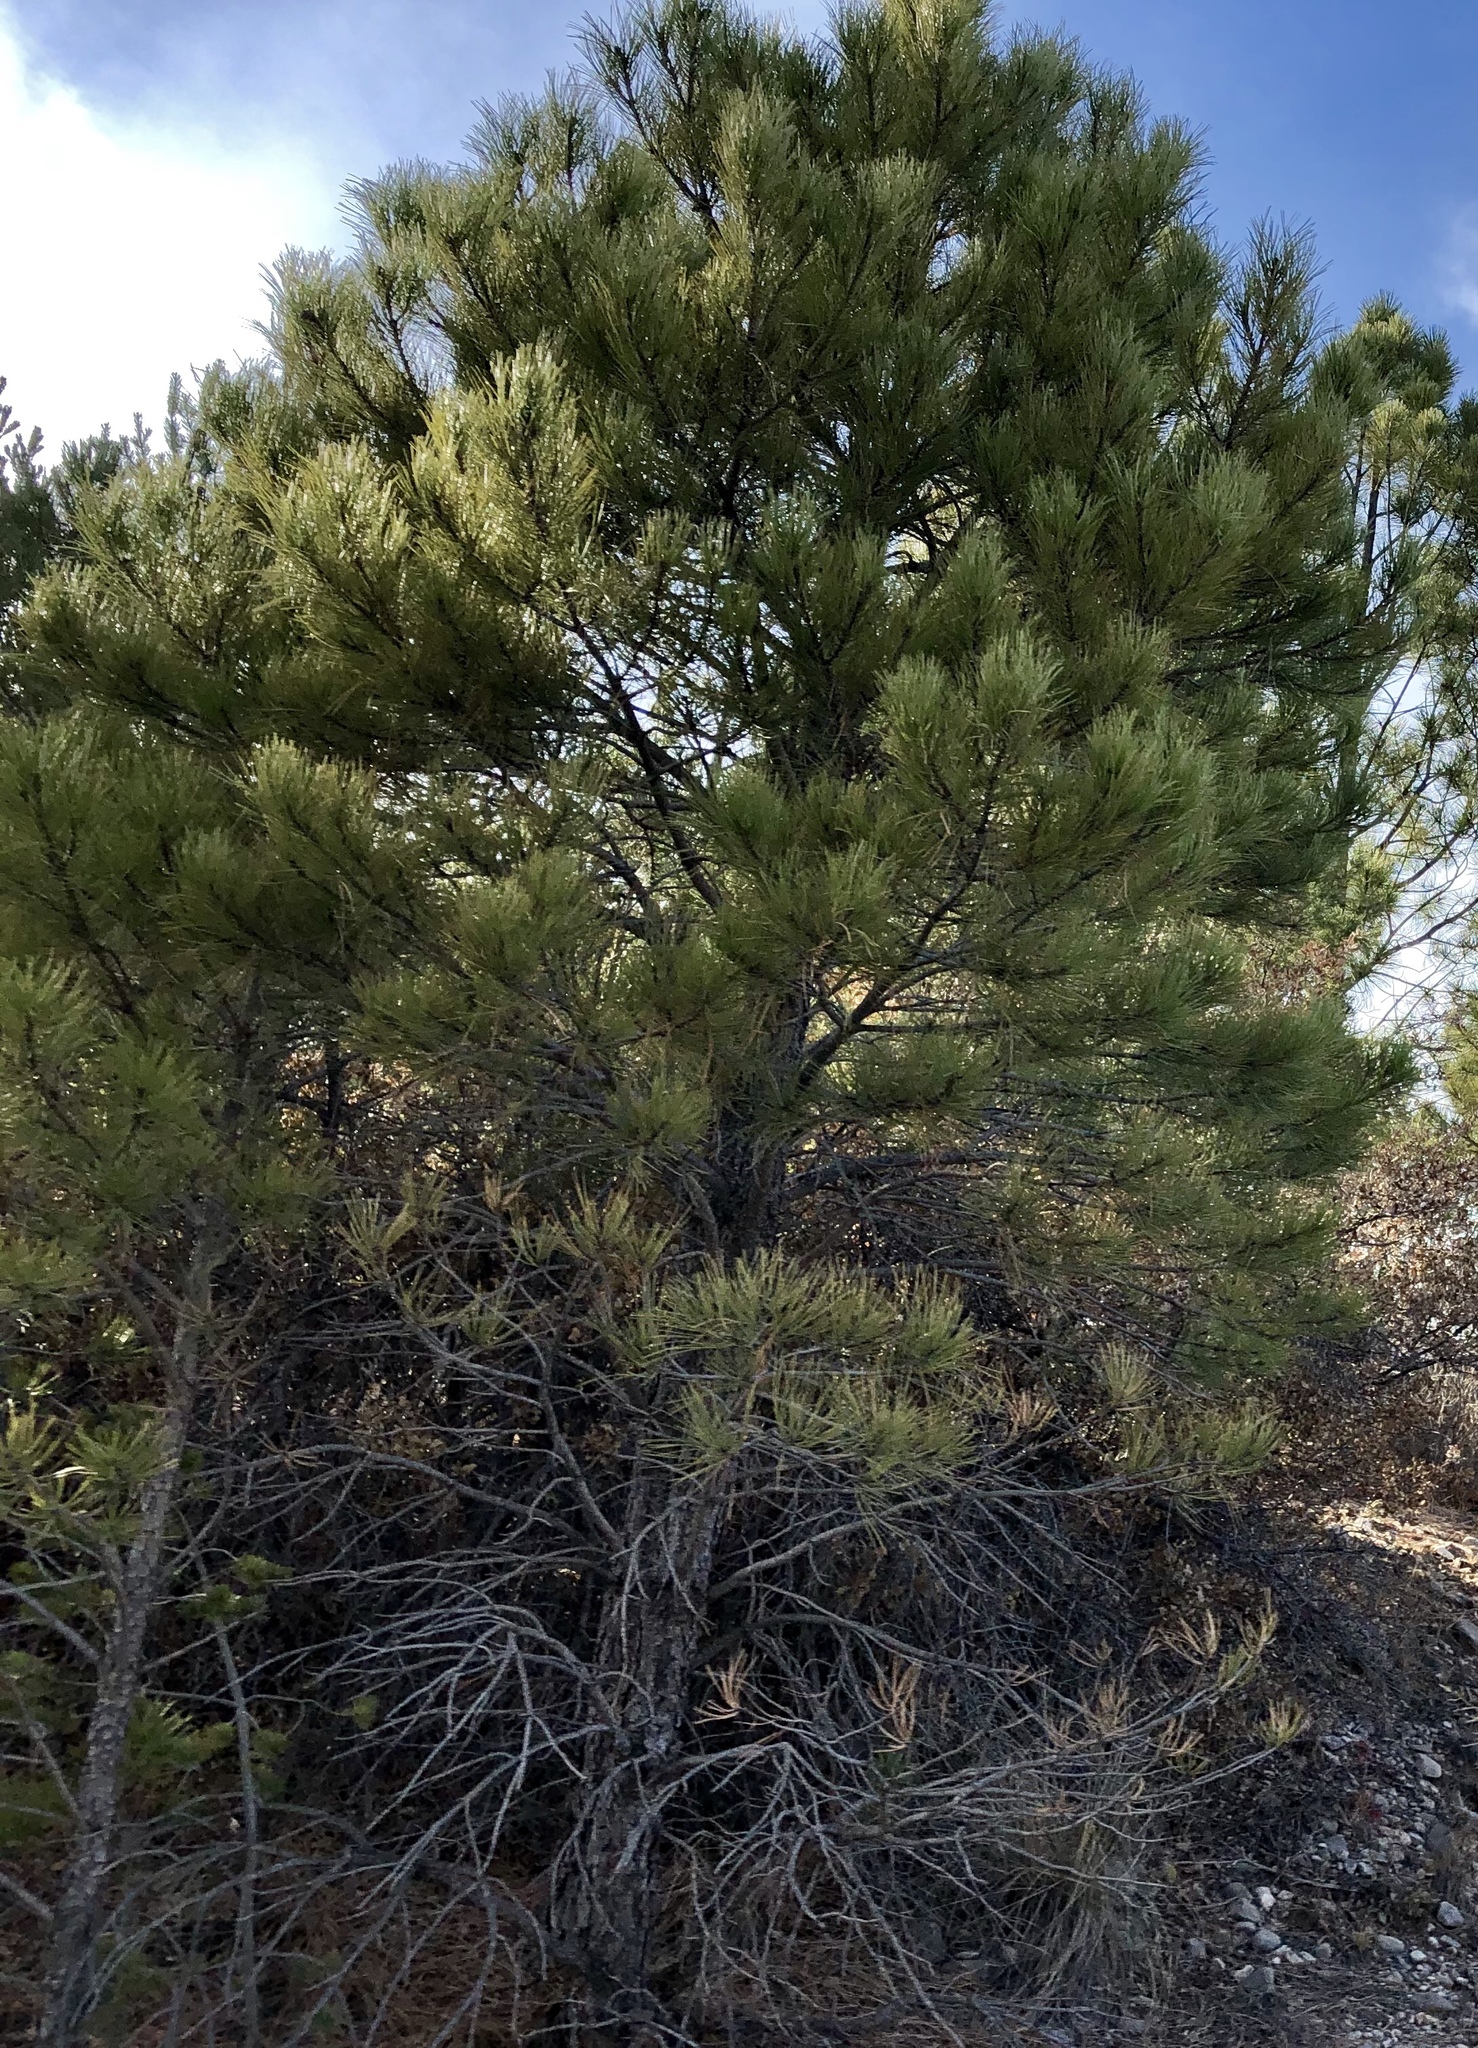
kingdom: Plantae
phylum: Tracheophyta
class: Pinopsida
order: Pinales
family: Pinaceae
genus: Pinus
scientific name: Pinus ponderosa
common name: Western yellow-pine
